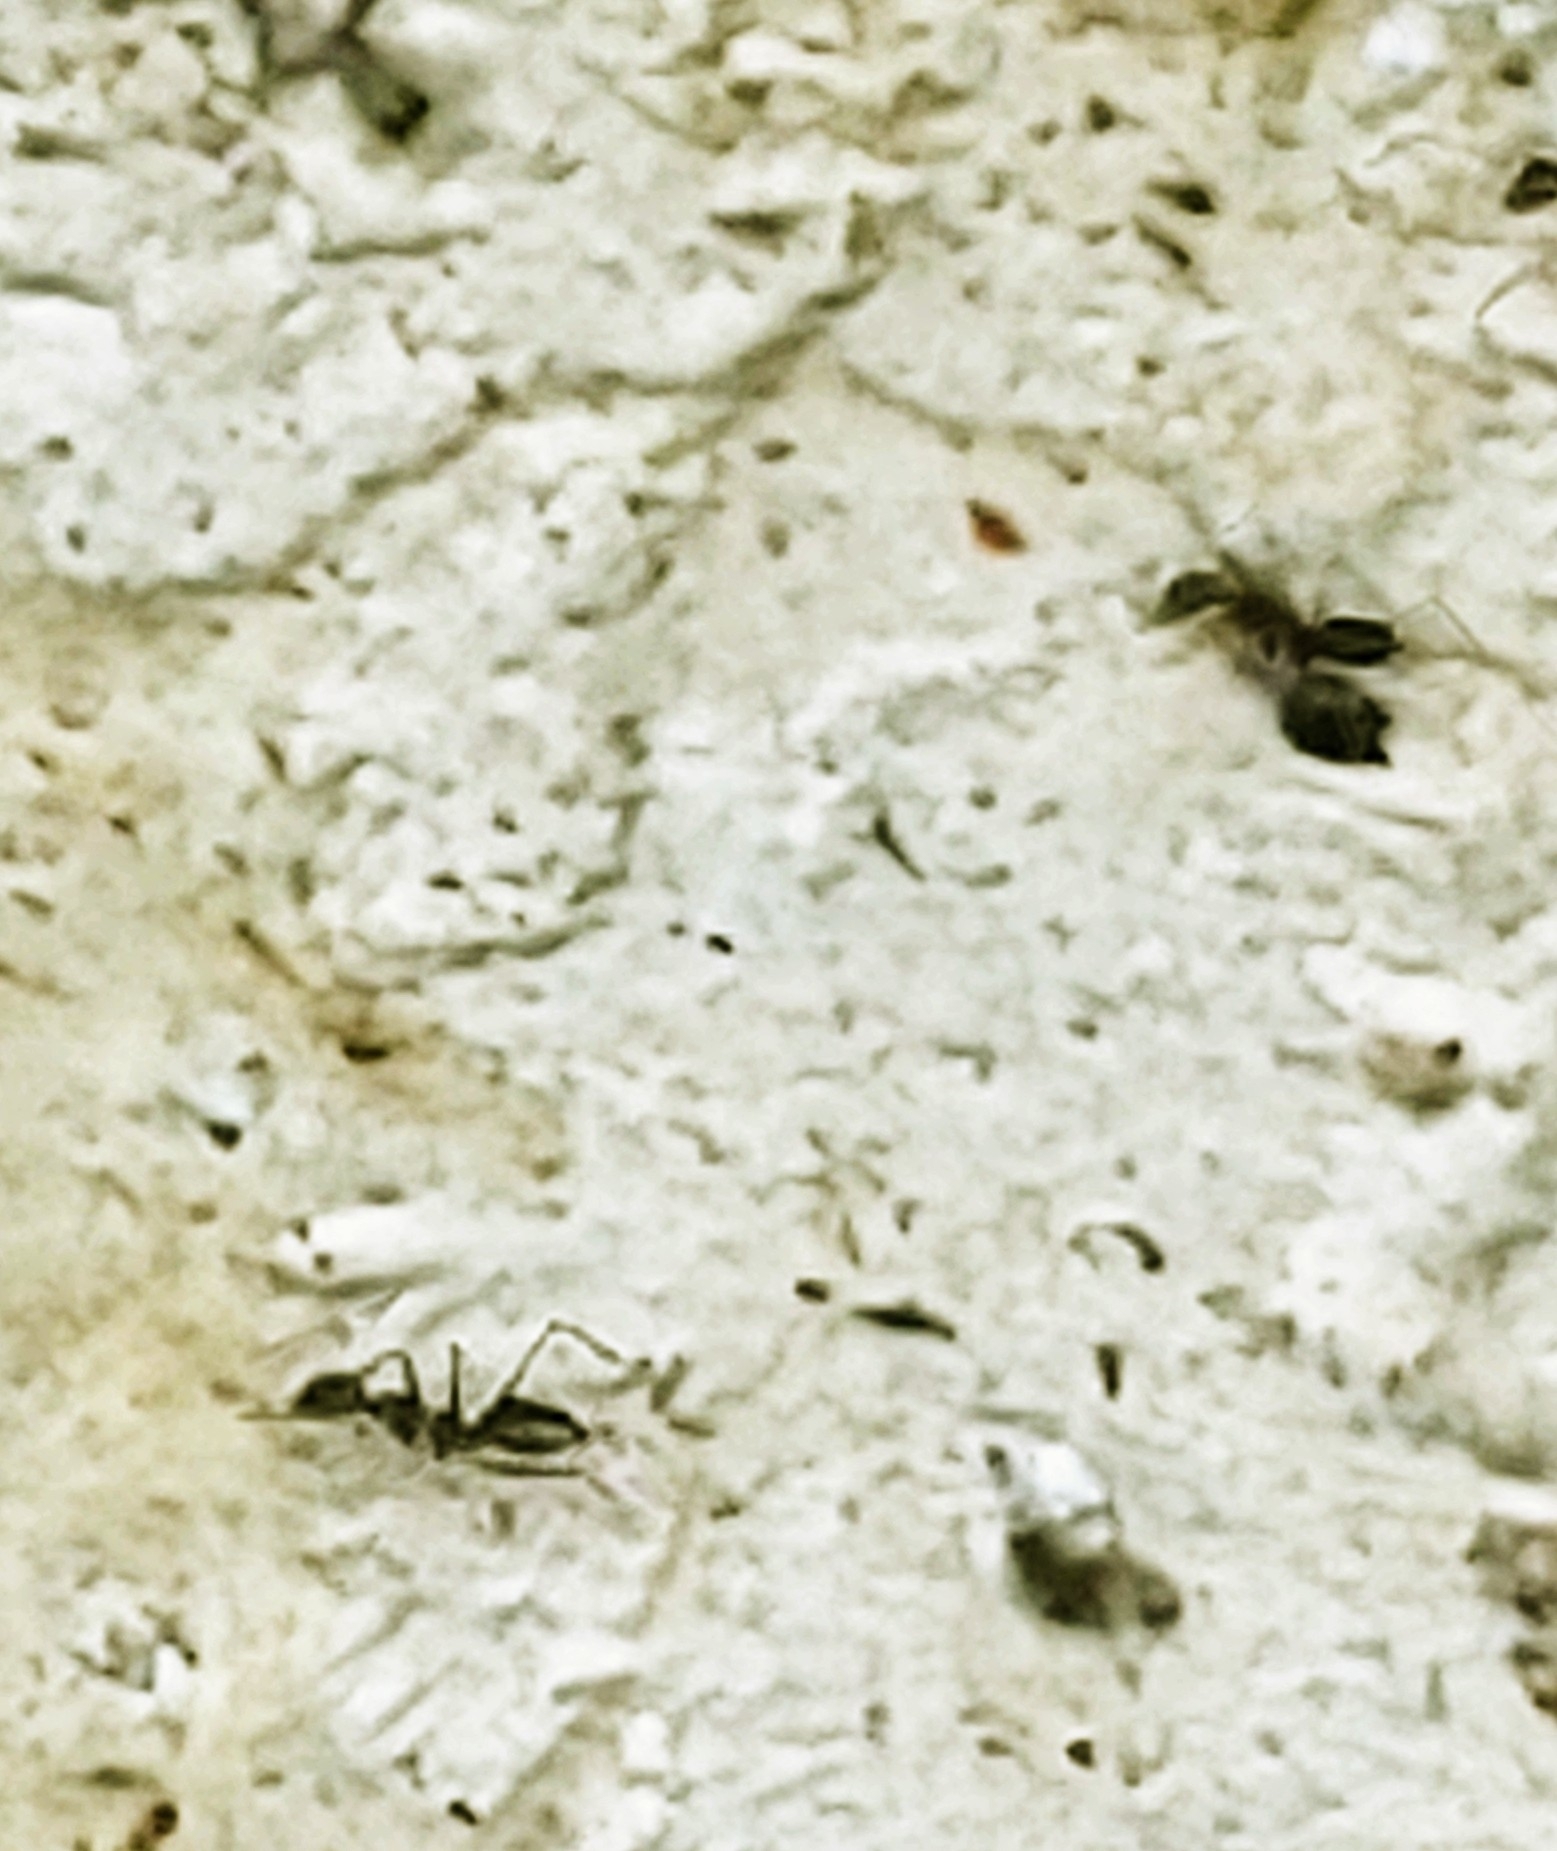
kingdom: Animalia
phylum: Arthropoda
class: Insecta
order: Hymenoptera
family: Formicidae
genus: Paratrechina
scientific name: Paratrechina longicornis
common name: Longhorned crazy ant
